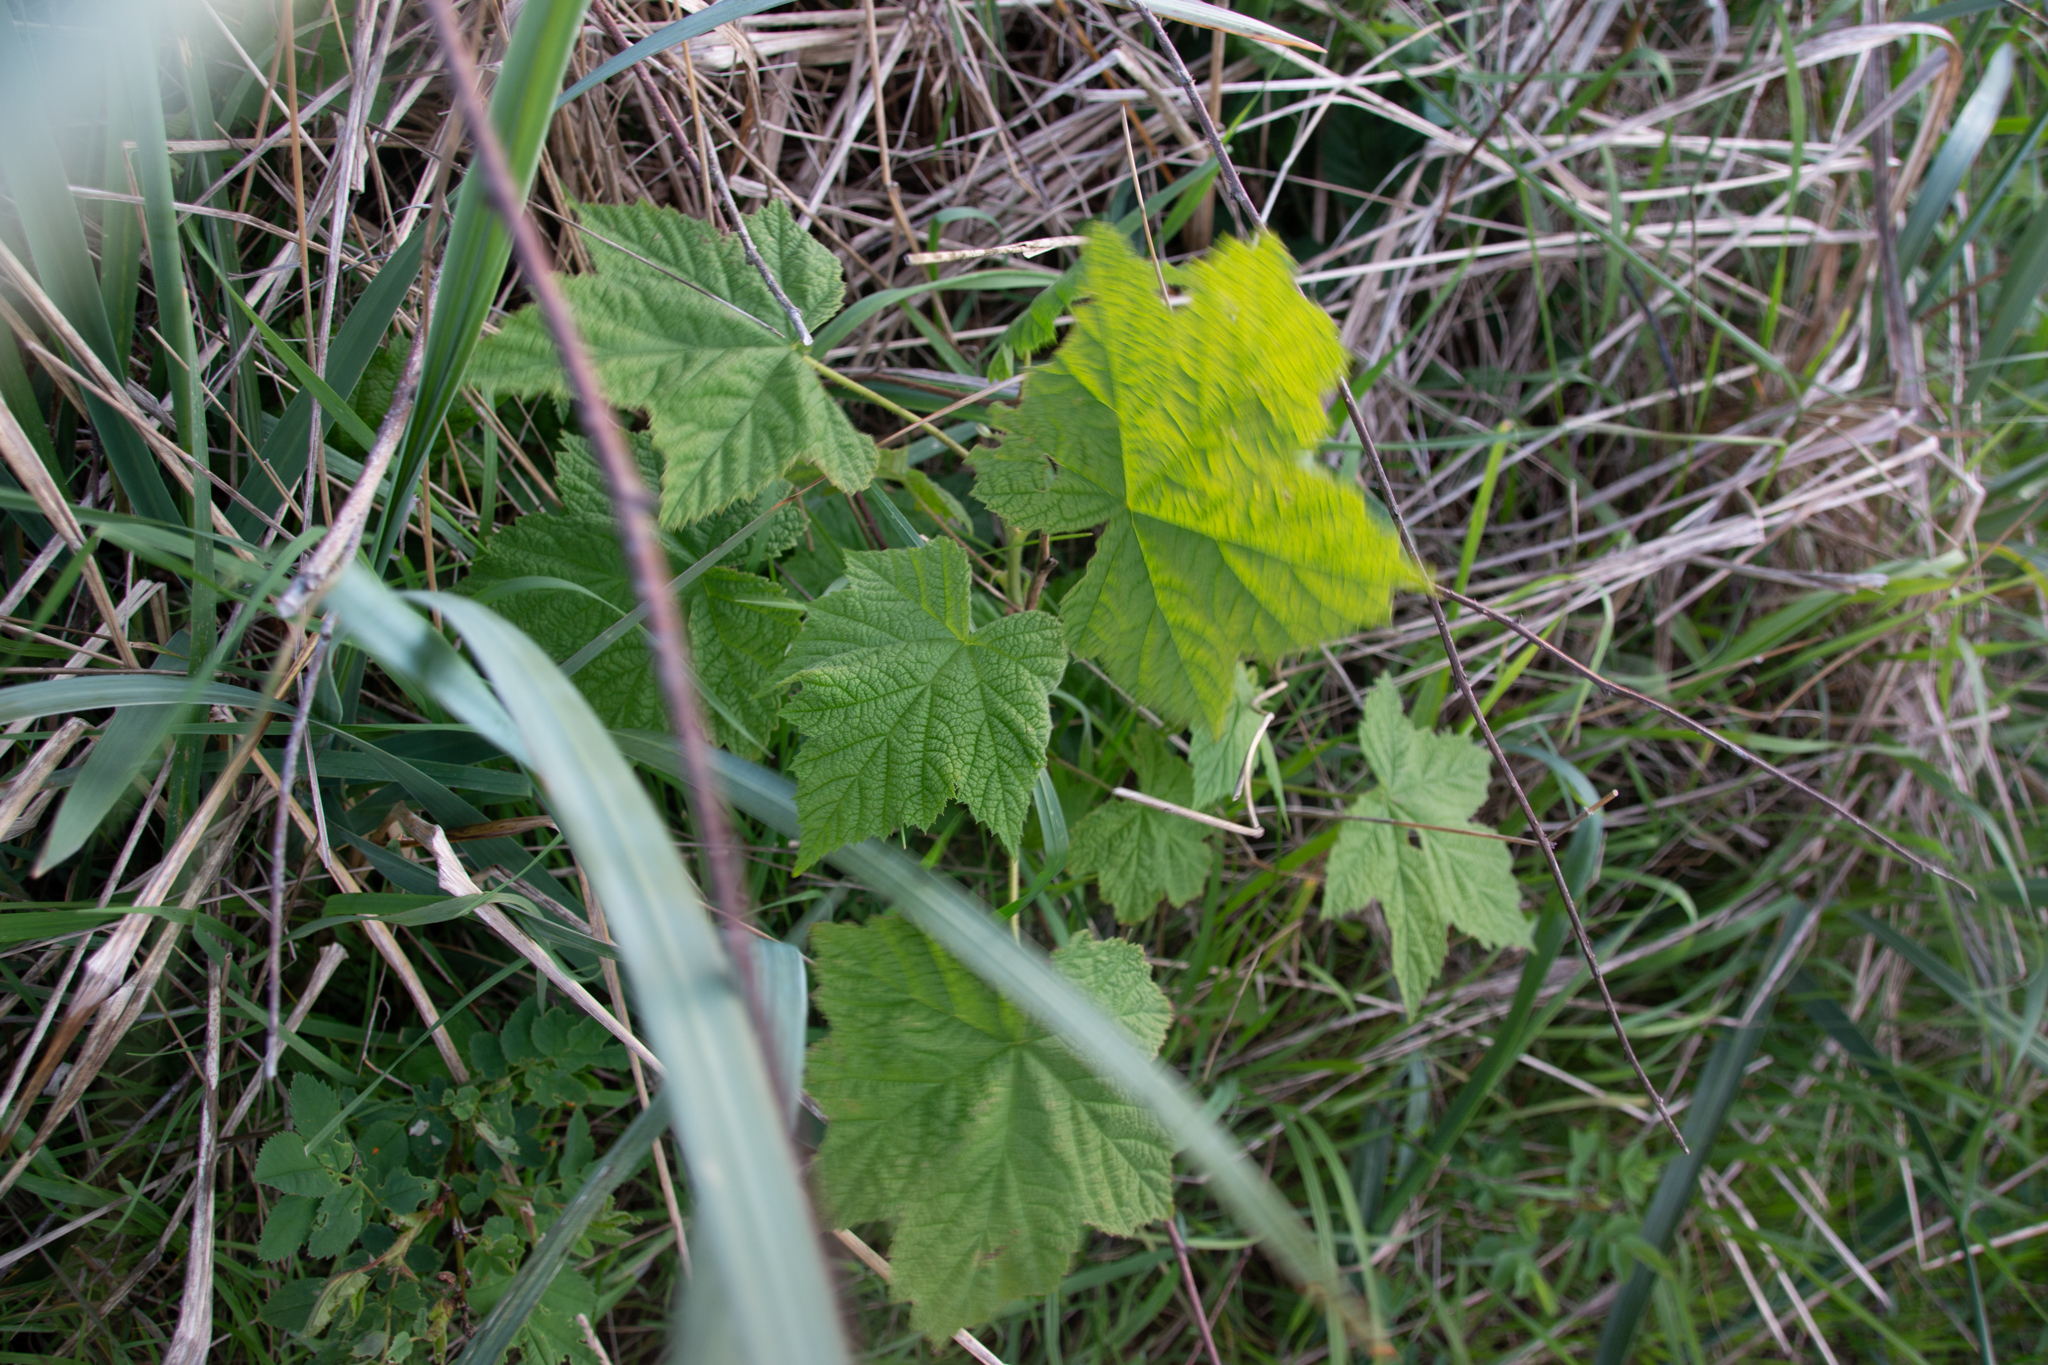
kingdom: Plantae
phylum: Tracheophyta
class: Magnoliopsida
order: Rosales
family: Rosaceae
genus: Rubus
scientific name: Rubus parviflorus
